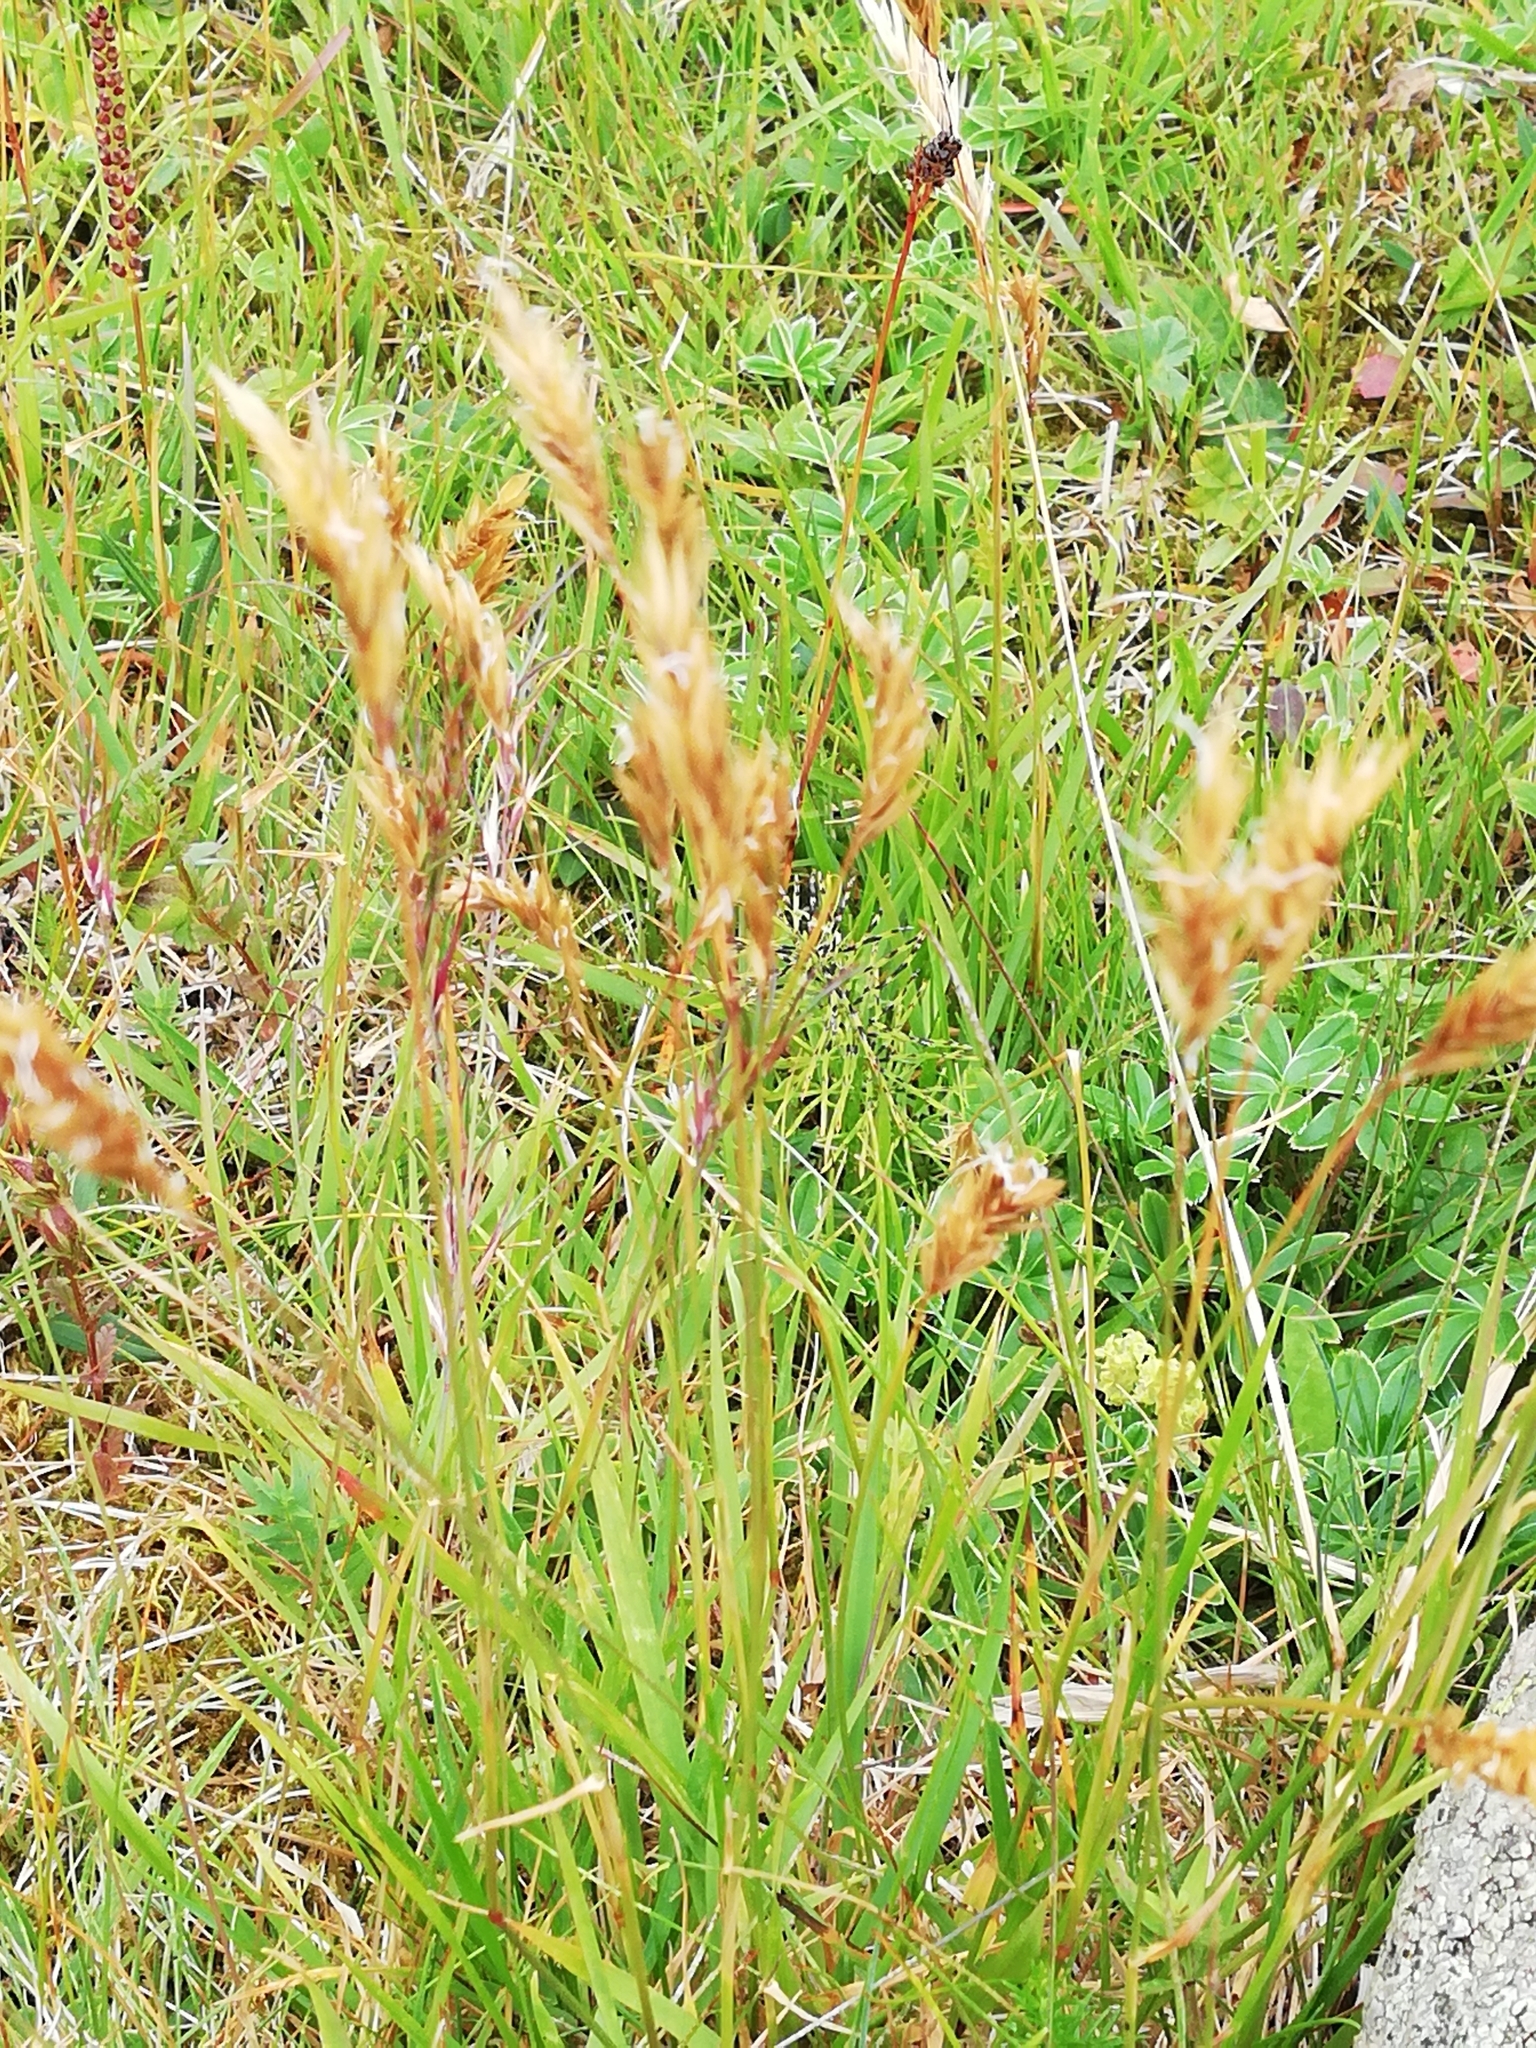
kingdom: Plantae
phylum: Tracheophyta
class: Liliopsida
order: Poales
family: Poaceae
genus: Anthoxanthum
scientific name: Anthoxanthum odoratum
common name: Sweet vernalgrass
